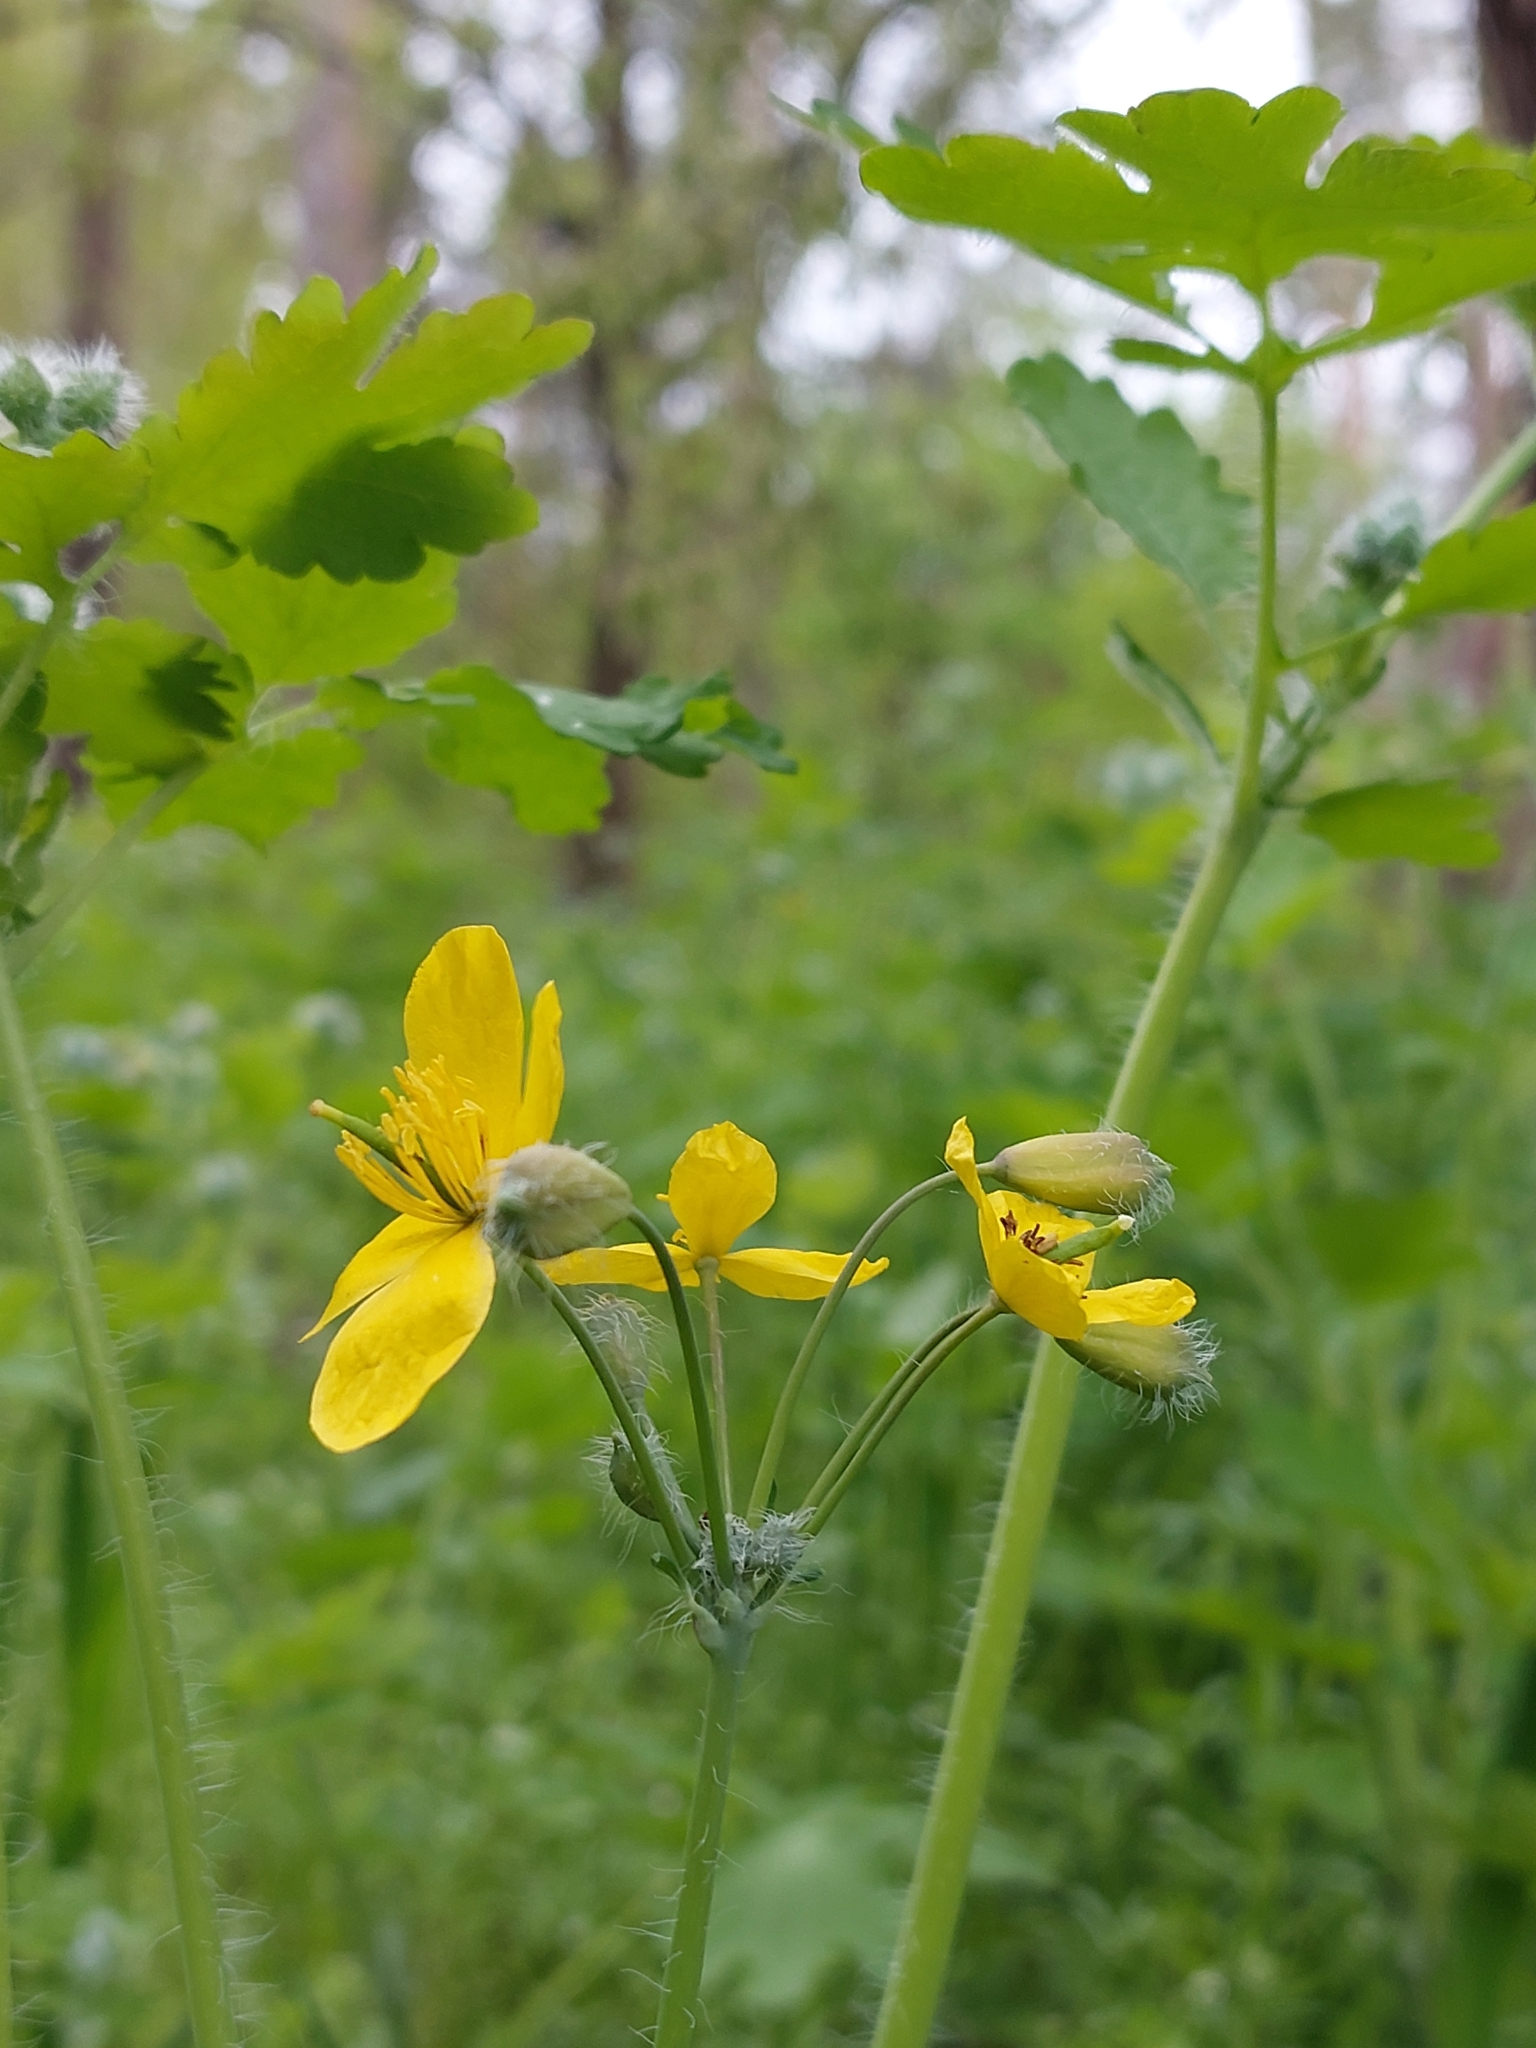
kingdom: Plantae
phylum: Tracheophyta
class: Magnoliopsida
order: Ranunculales
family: Papaveraceae
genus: Chelidonium
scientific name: Chelidonium majus
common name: Greater celandine
